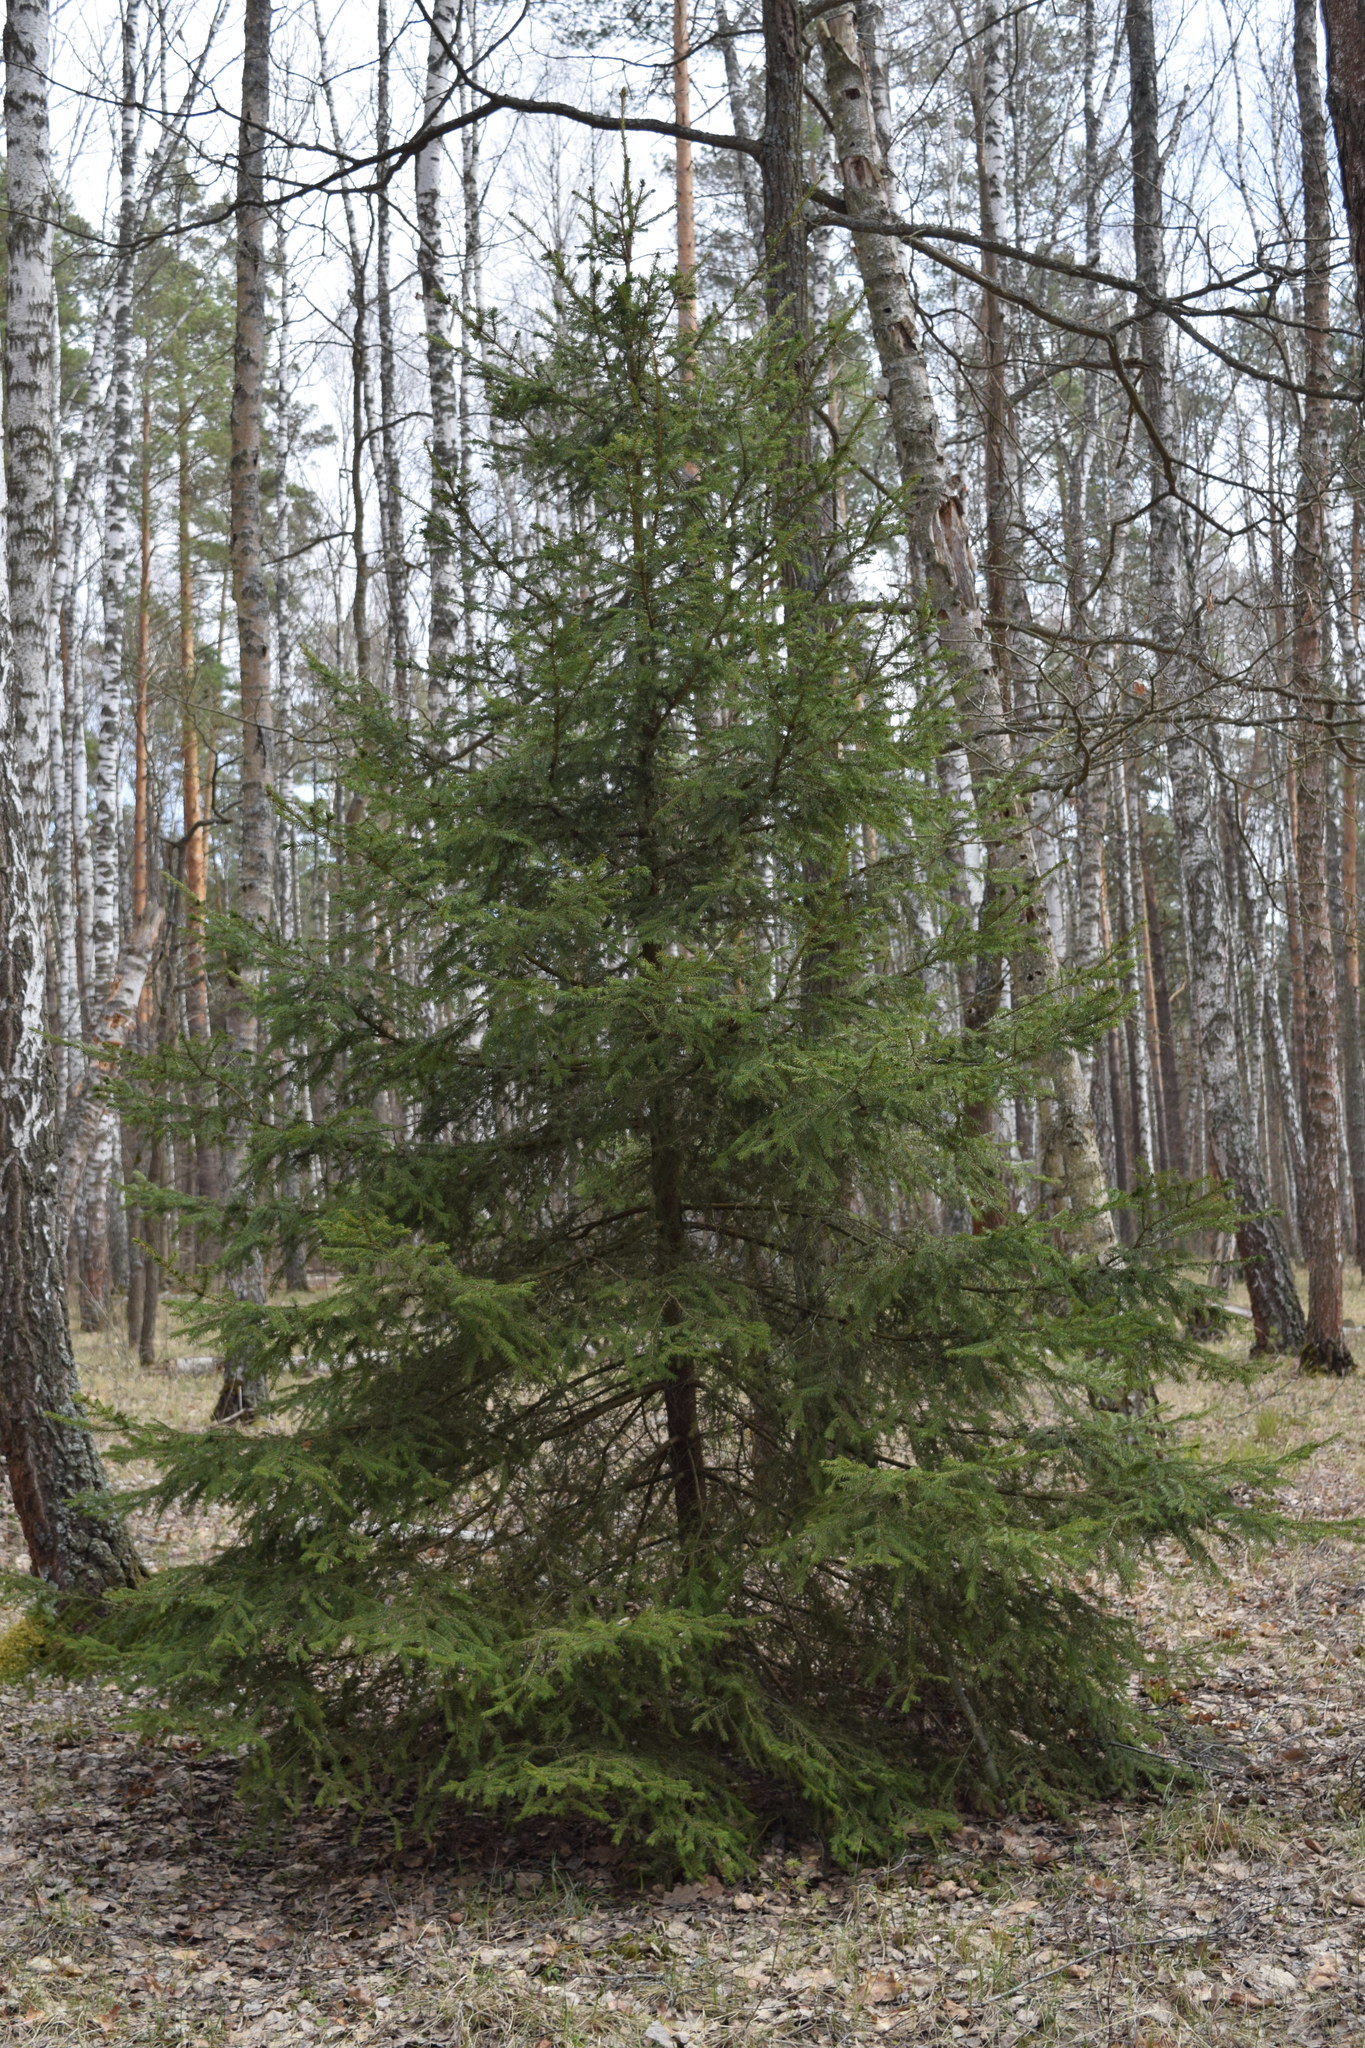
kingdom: Plantae
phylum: Tracheophyta
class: Pinopsida
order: Pinales
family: Pinaceae
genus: Picea
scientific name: Picea abies
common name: Norway spruce
